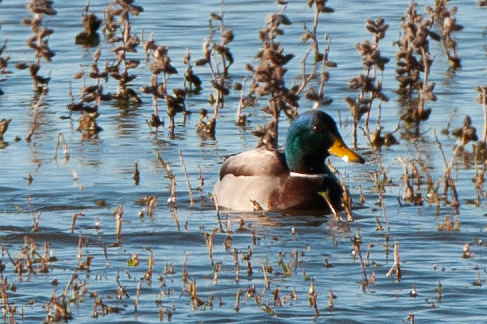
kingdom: Animalia
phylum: Chordata
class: Aves
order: Anseriformes
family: Anatidae
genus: Anas
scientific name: Anas platyrhynchos
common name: Mallard
